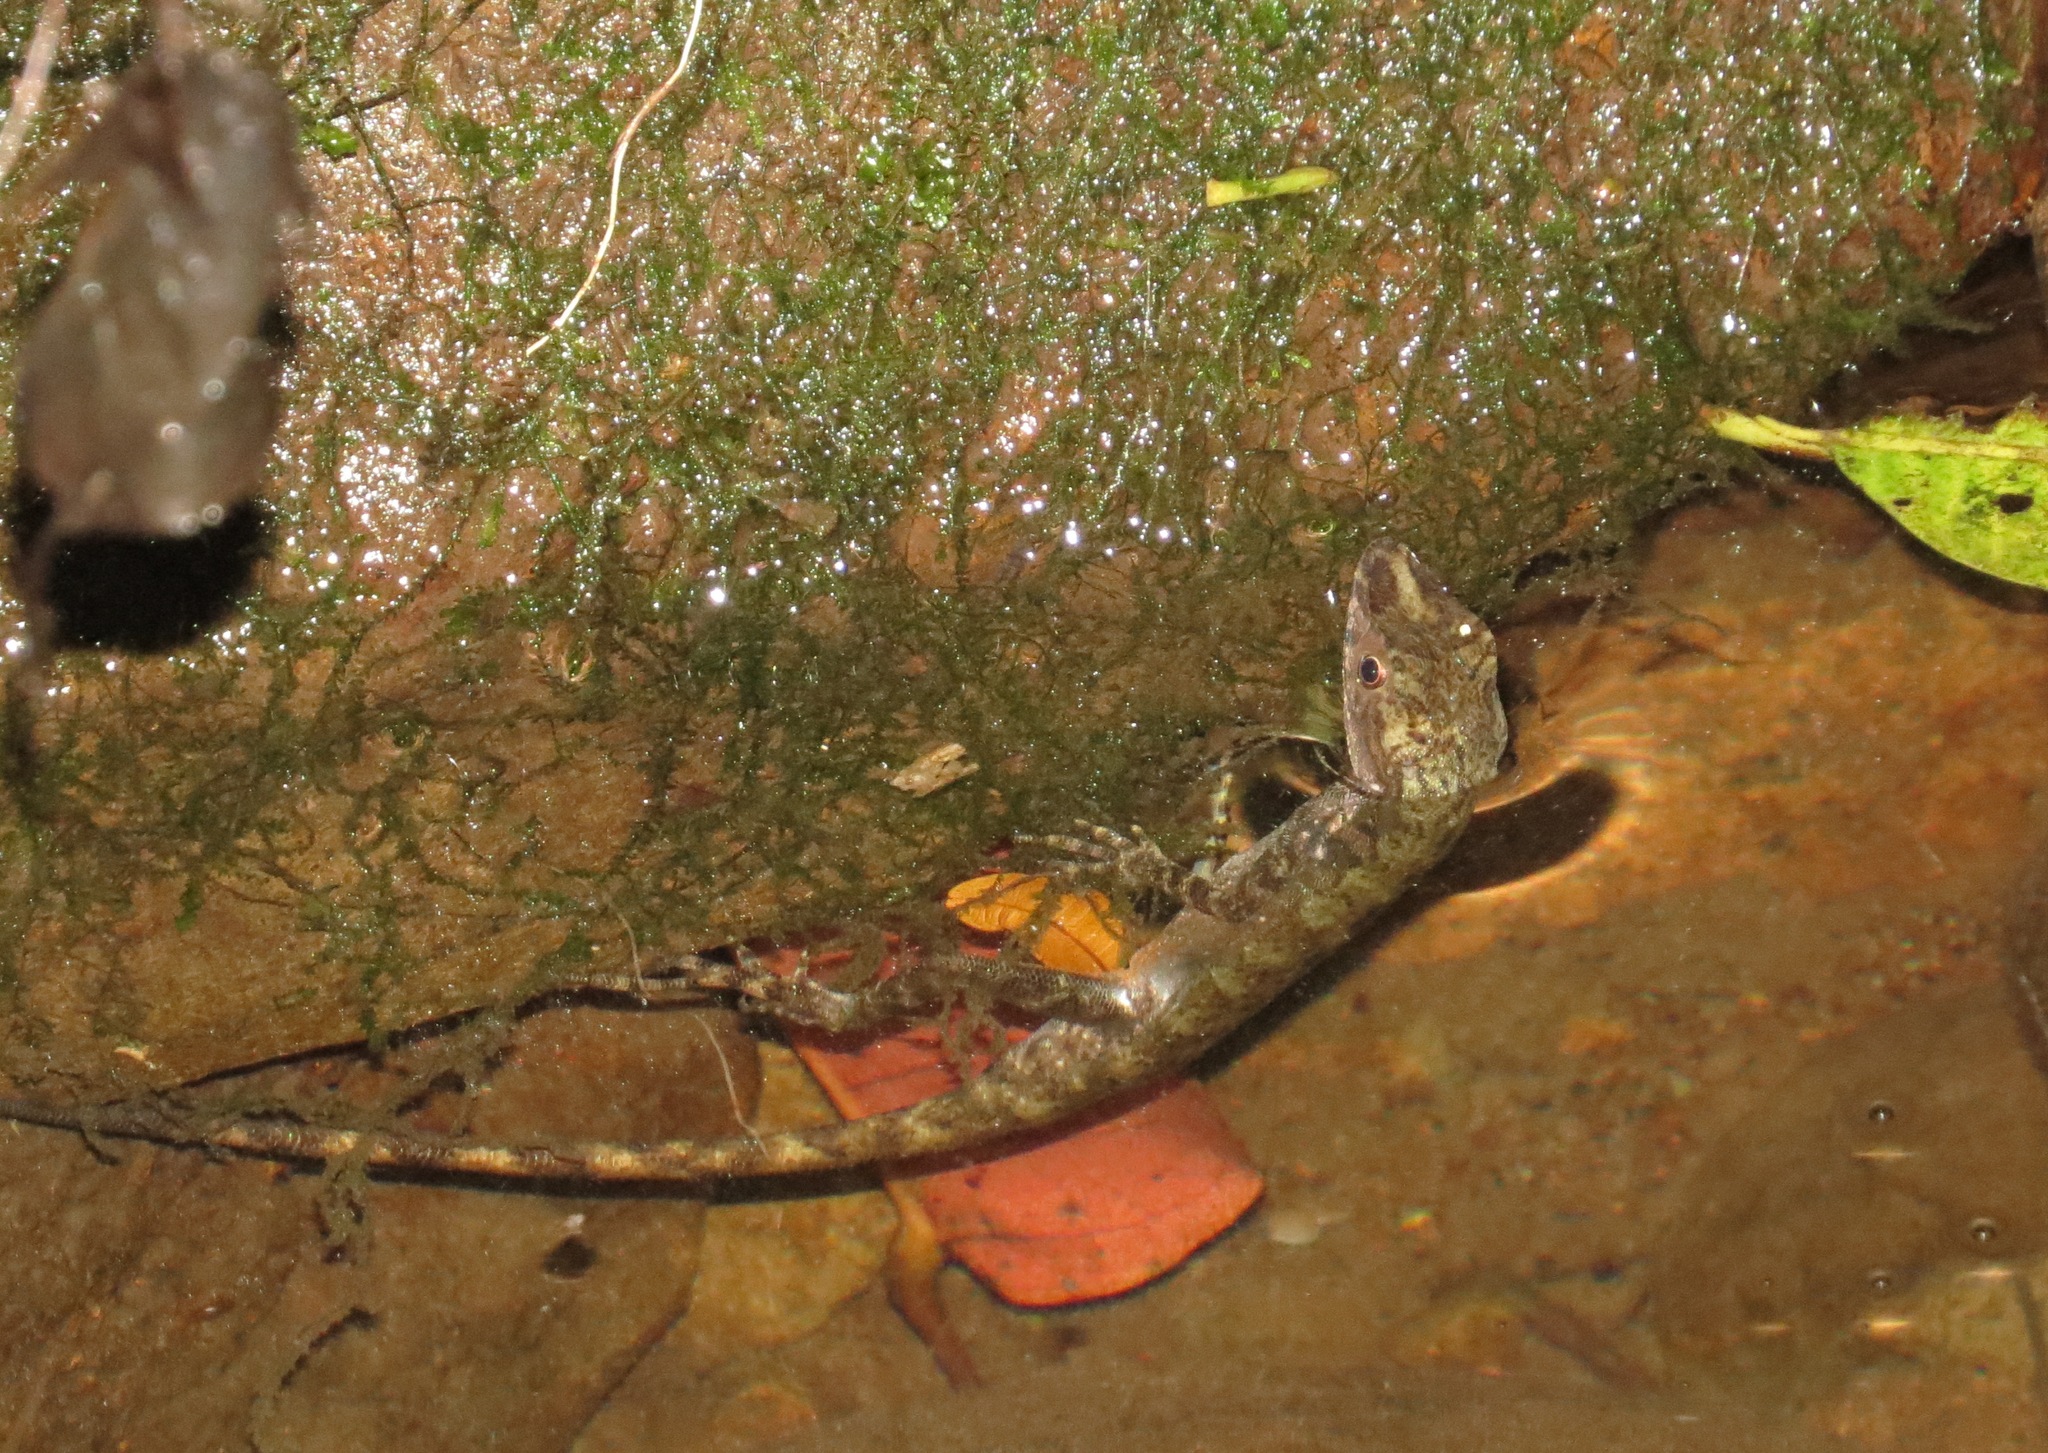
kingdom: Animalia
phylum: Chordata
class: Squamata
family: Dactyloidae
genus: Anolis
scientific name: Anolis oxylophus
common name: Stream anole
